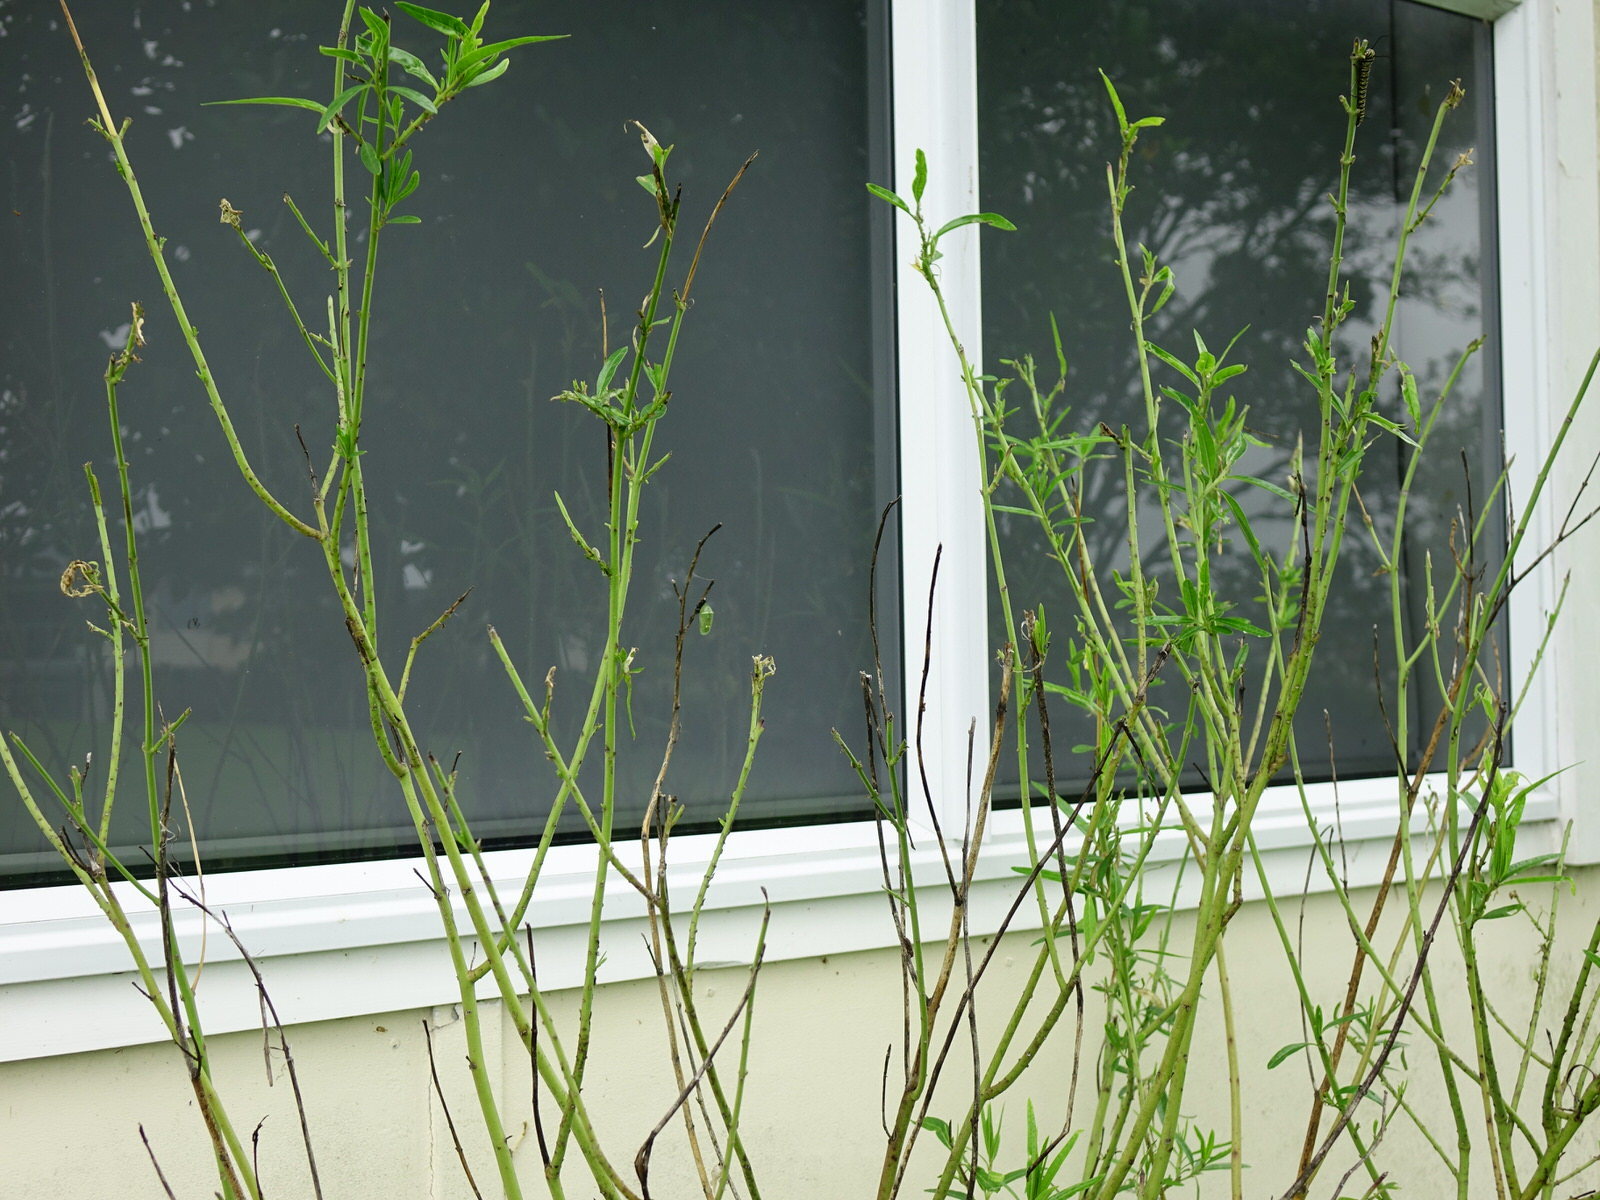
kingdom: Animalia
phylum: Arthropoda
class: Insecta
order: Lepidoptera
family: Nymphalidae
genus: Danaus
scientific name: Danaus plexippus
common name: Monarch
